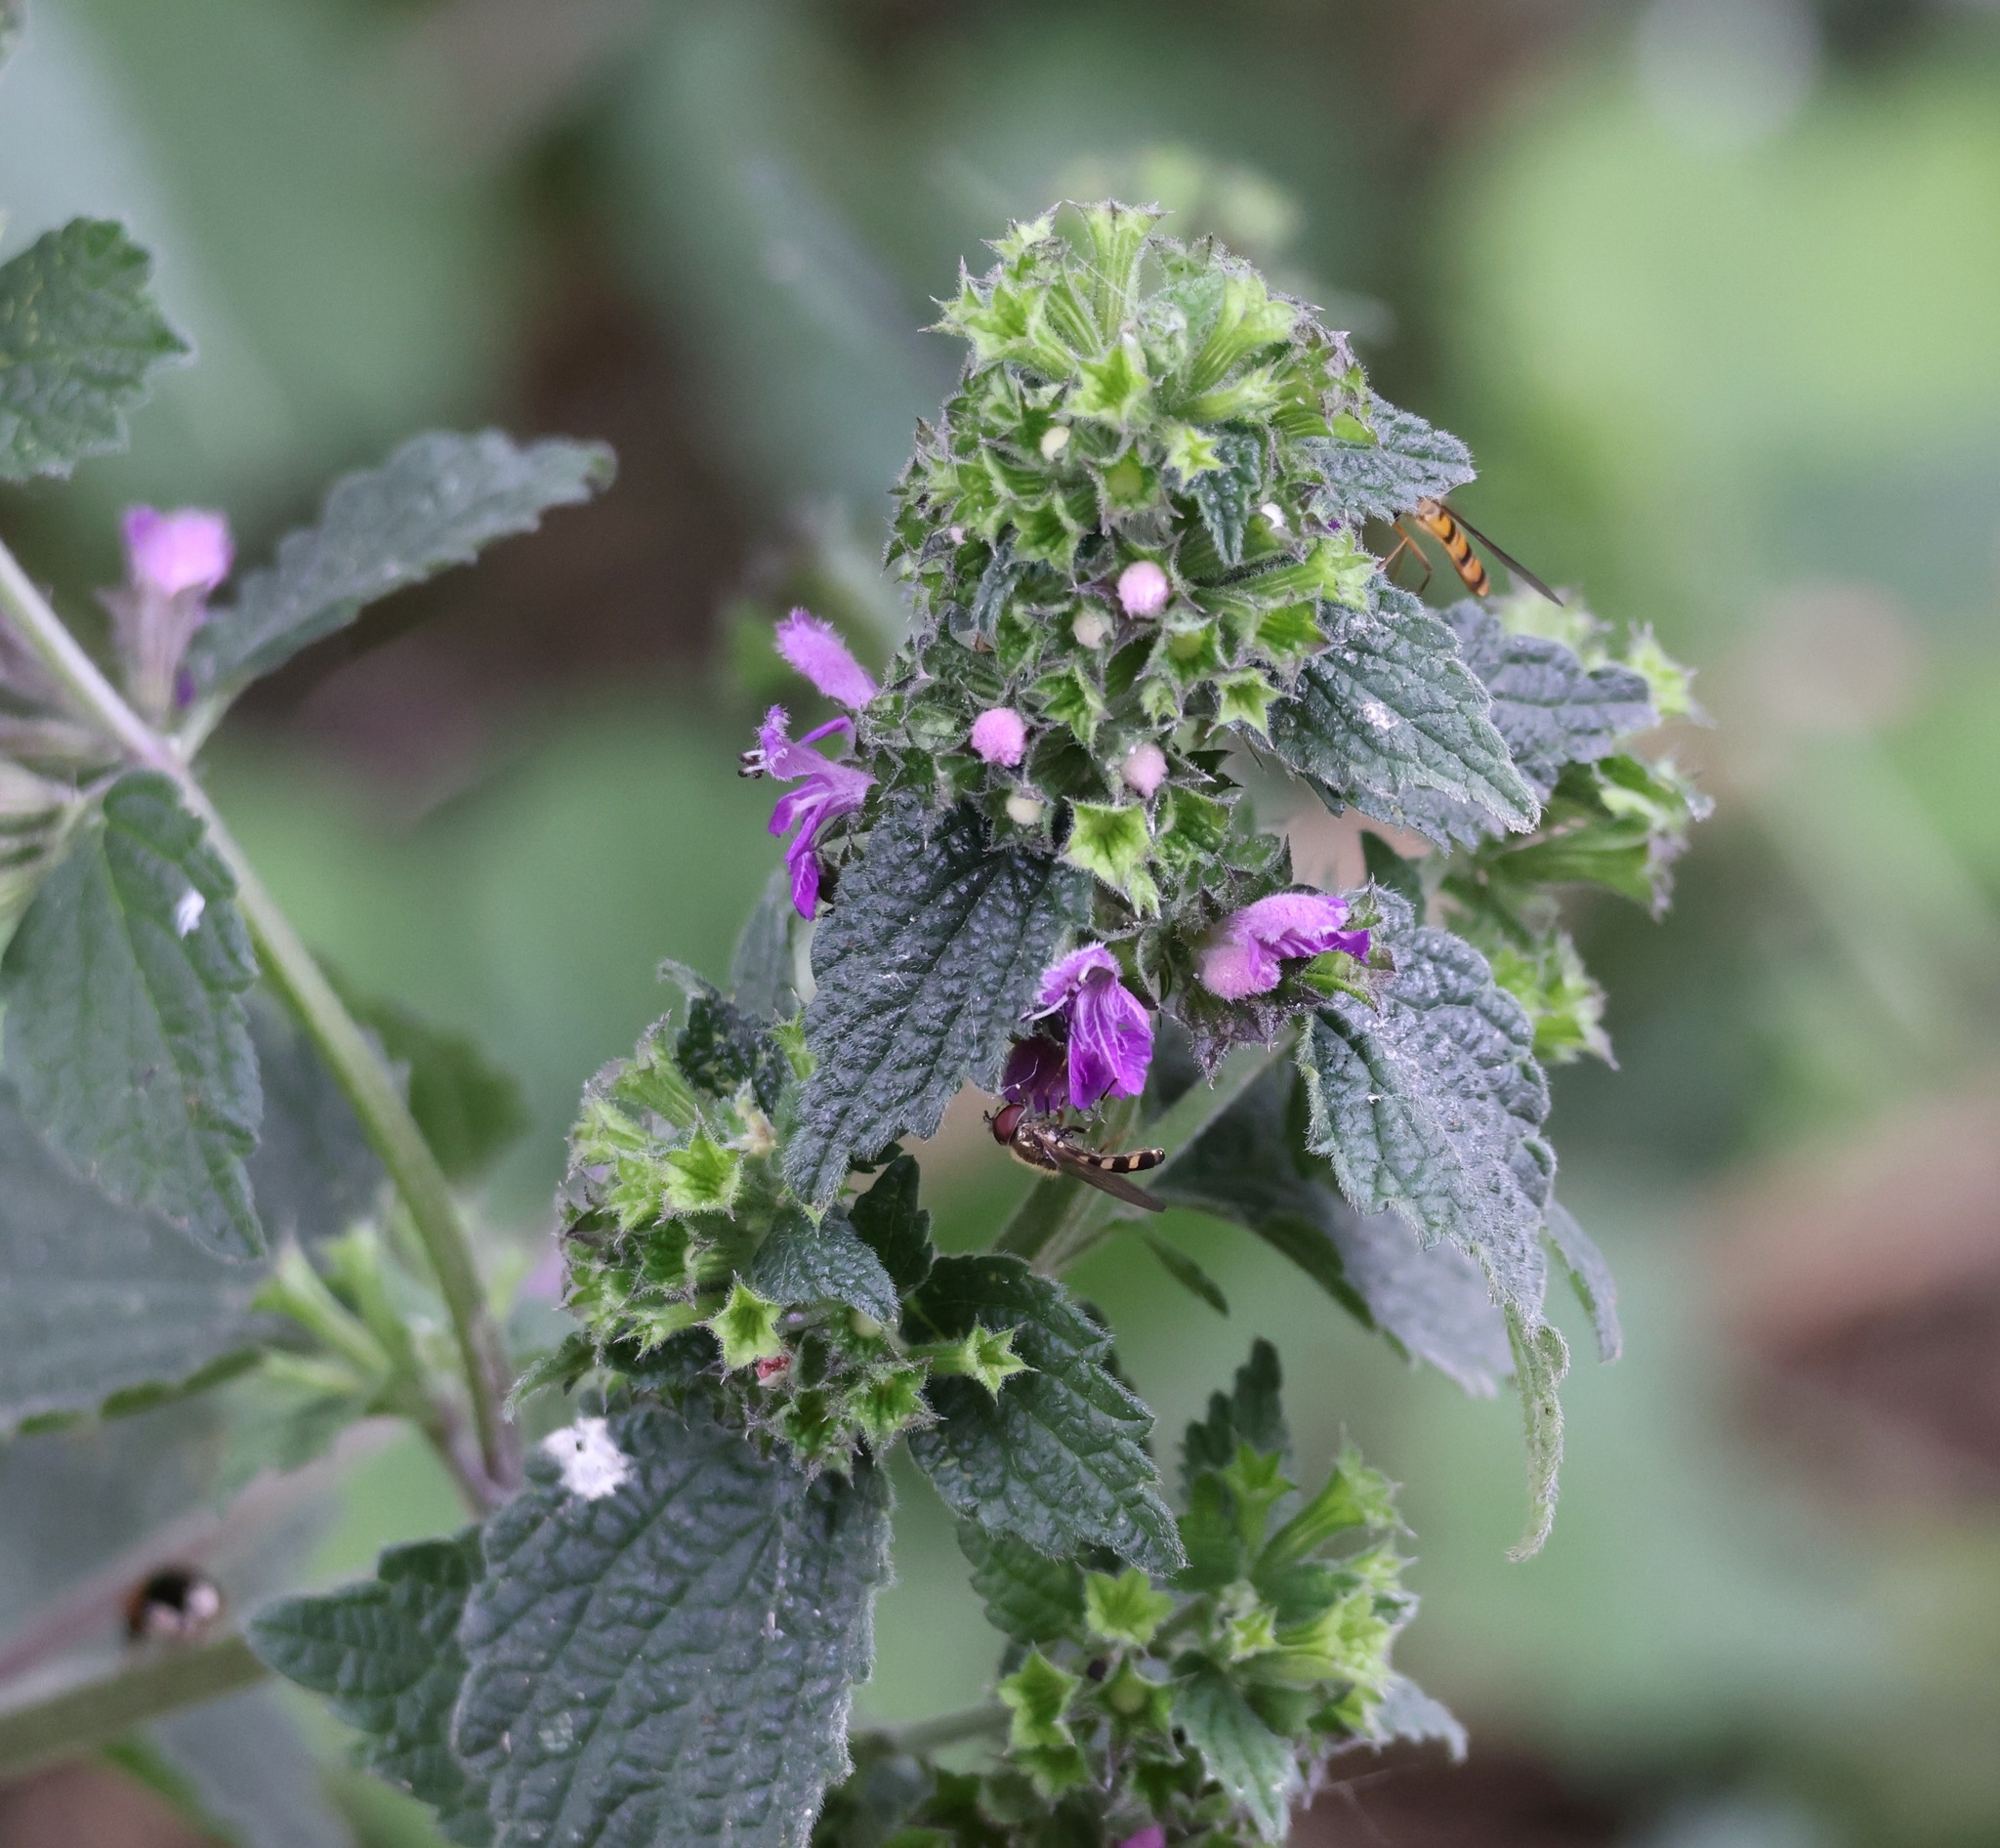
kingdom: Plantae
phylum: Tracheophyta
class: Magnoliopsida
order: Lamiales
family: Lamiaceae
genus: Ballota
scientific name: Ballota nigra
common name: Black horehound
